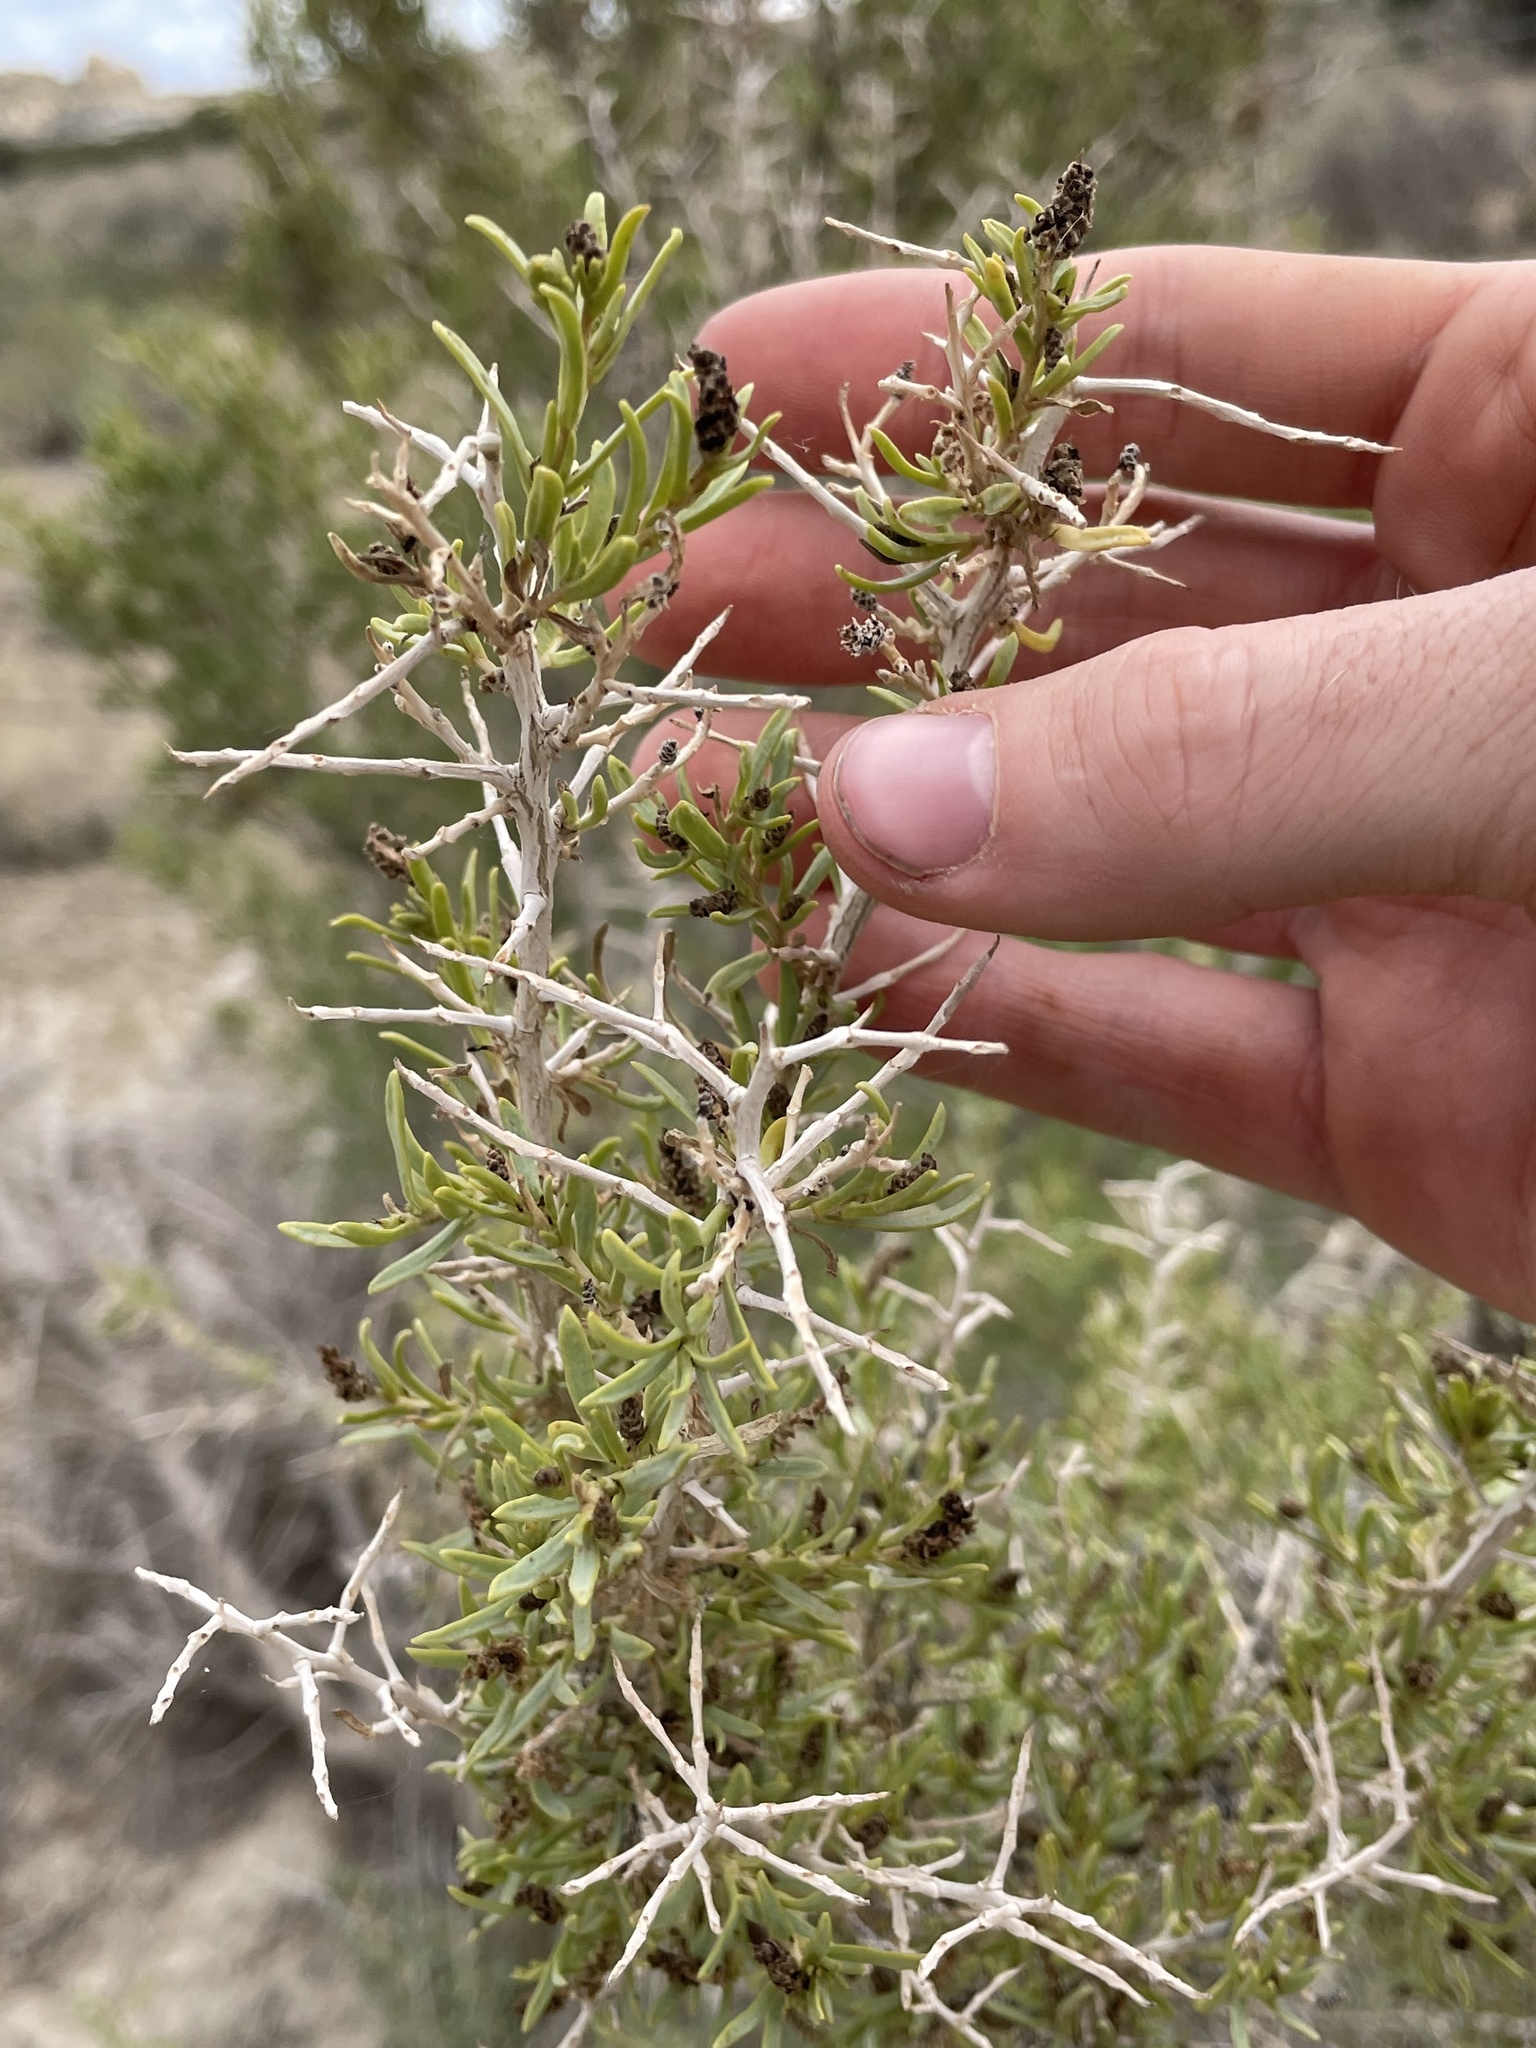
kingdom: Plantae
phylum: Tracheophyta
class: Magnoliopsida
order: Caryophyllales
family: Sarcobataceae
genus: Sarcobatus
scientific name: Sarcobatus vermiculatus
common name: Greasewood
